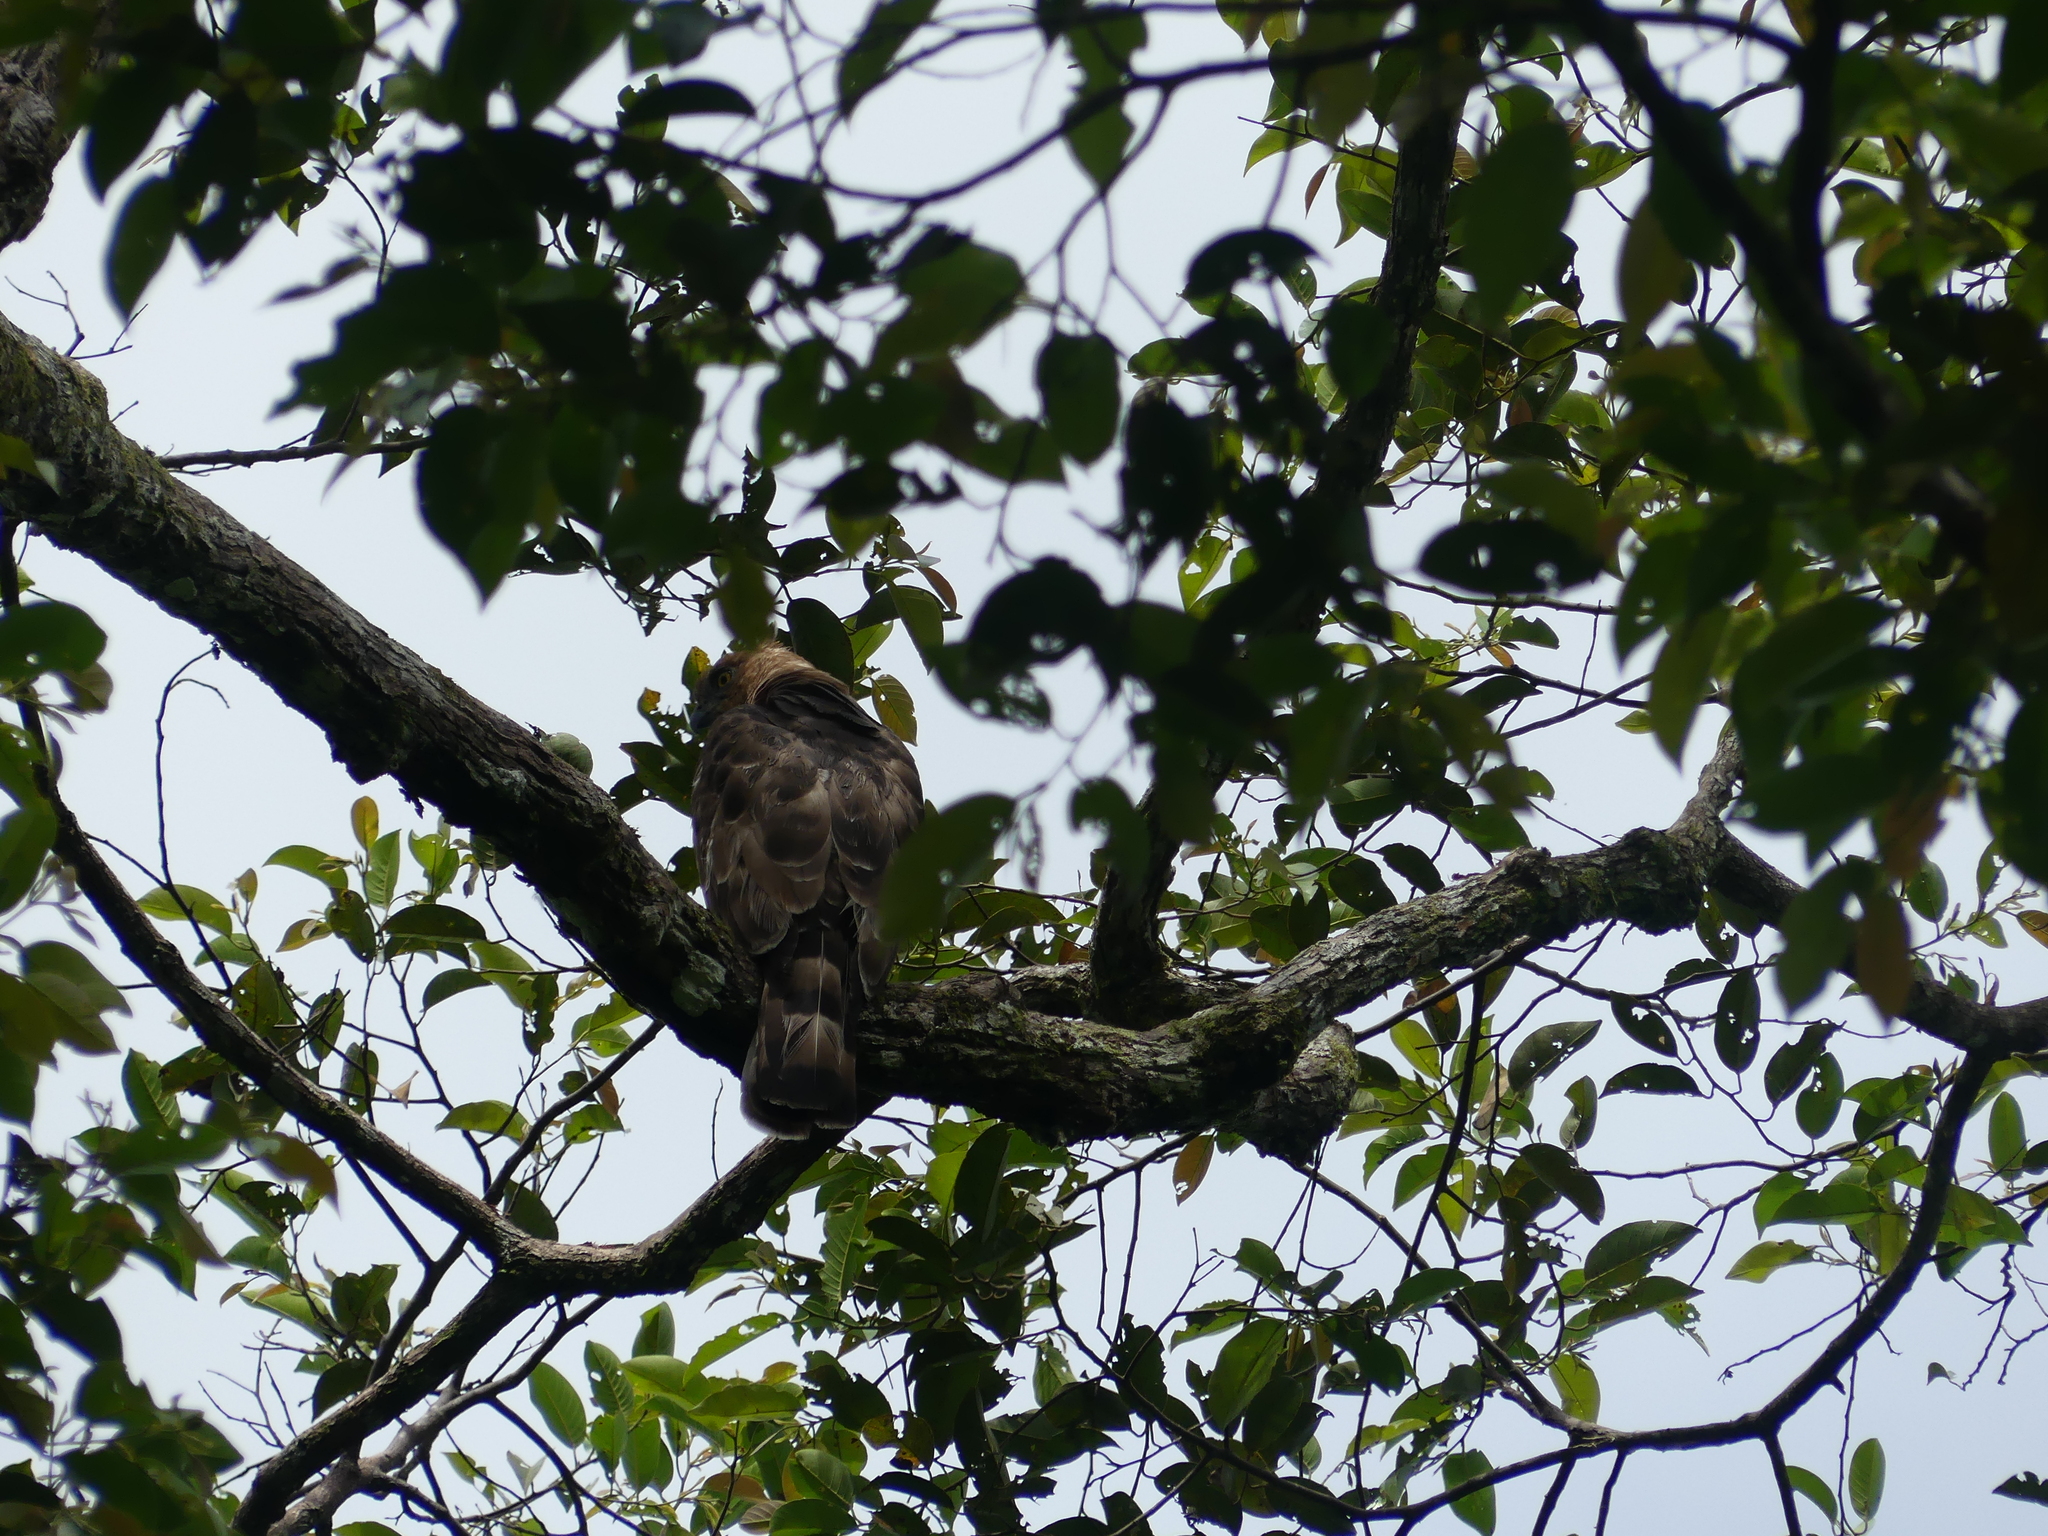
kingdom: Animalia
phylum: Chordata
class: Aves
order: Accipitriformes
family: Accipitridae
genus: Nisaetus
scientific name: Nisaetus nanus
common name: Wallace's hawk-eagle
